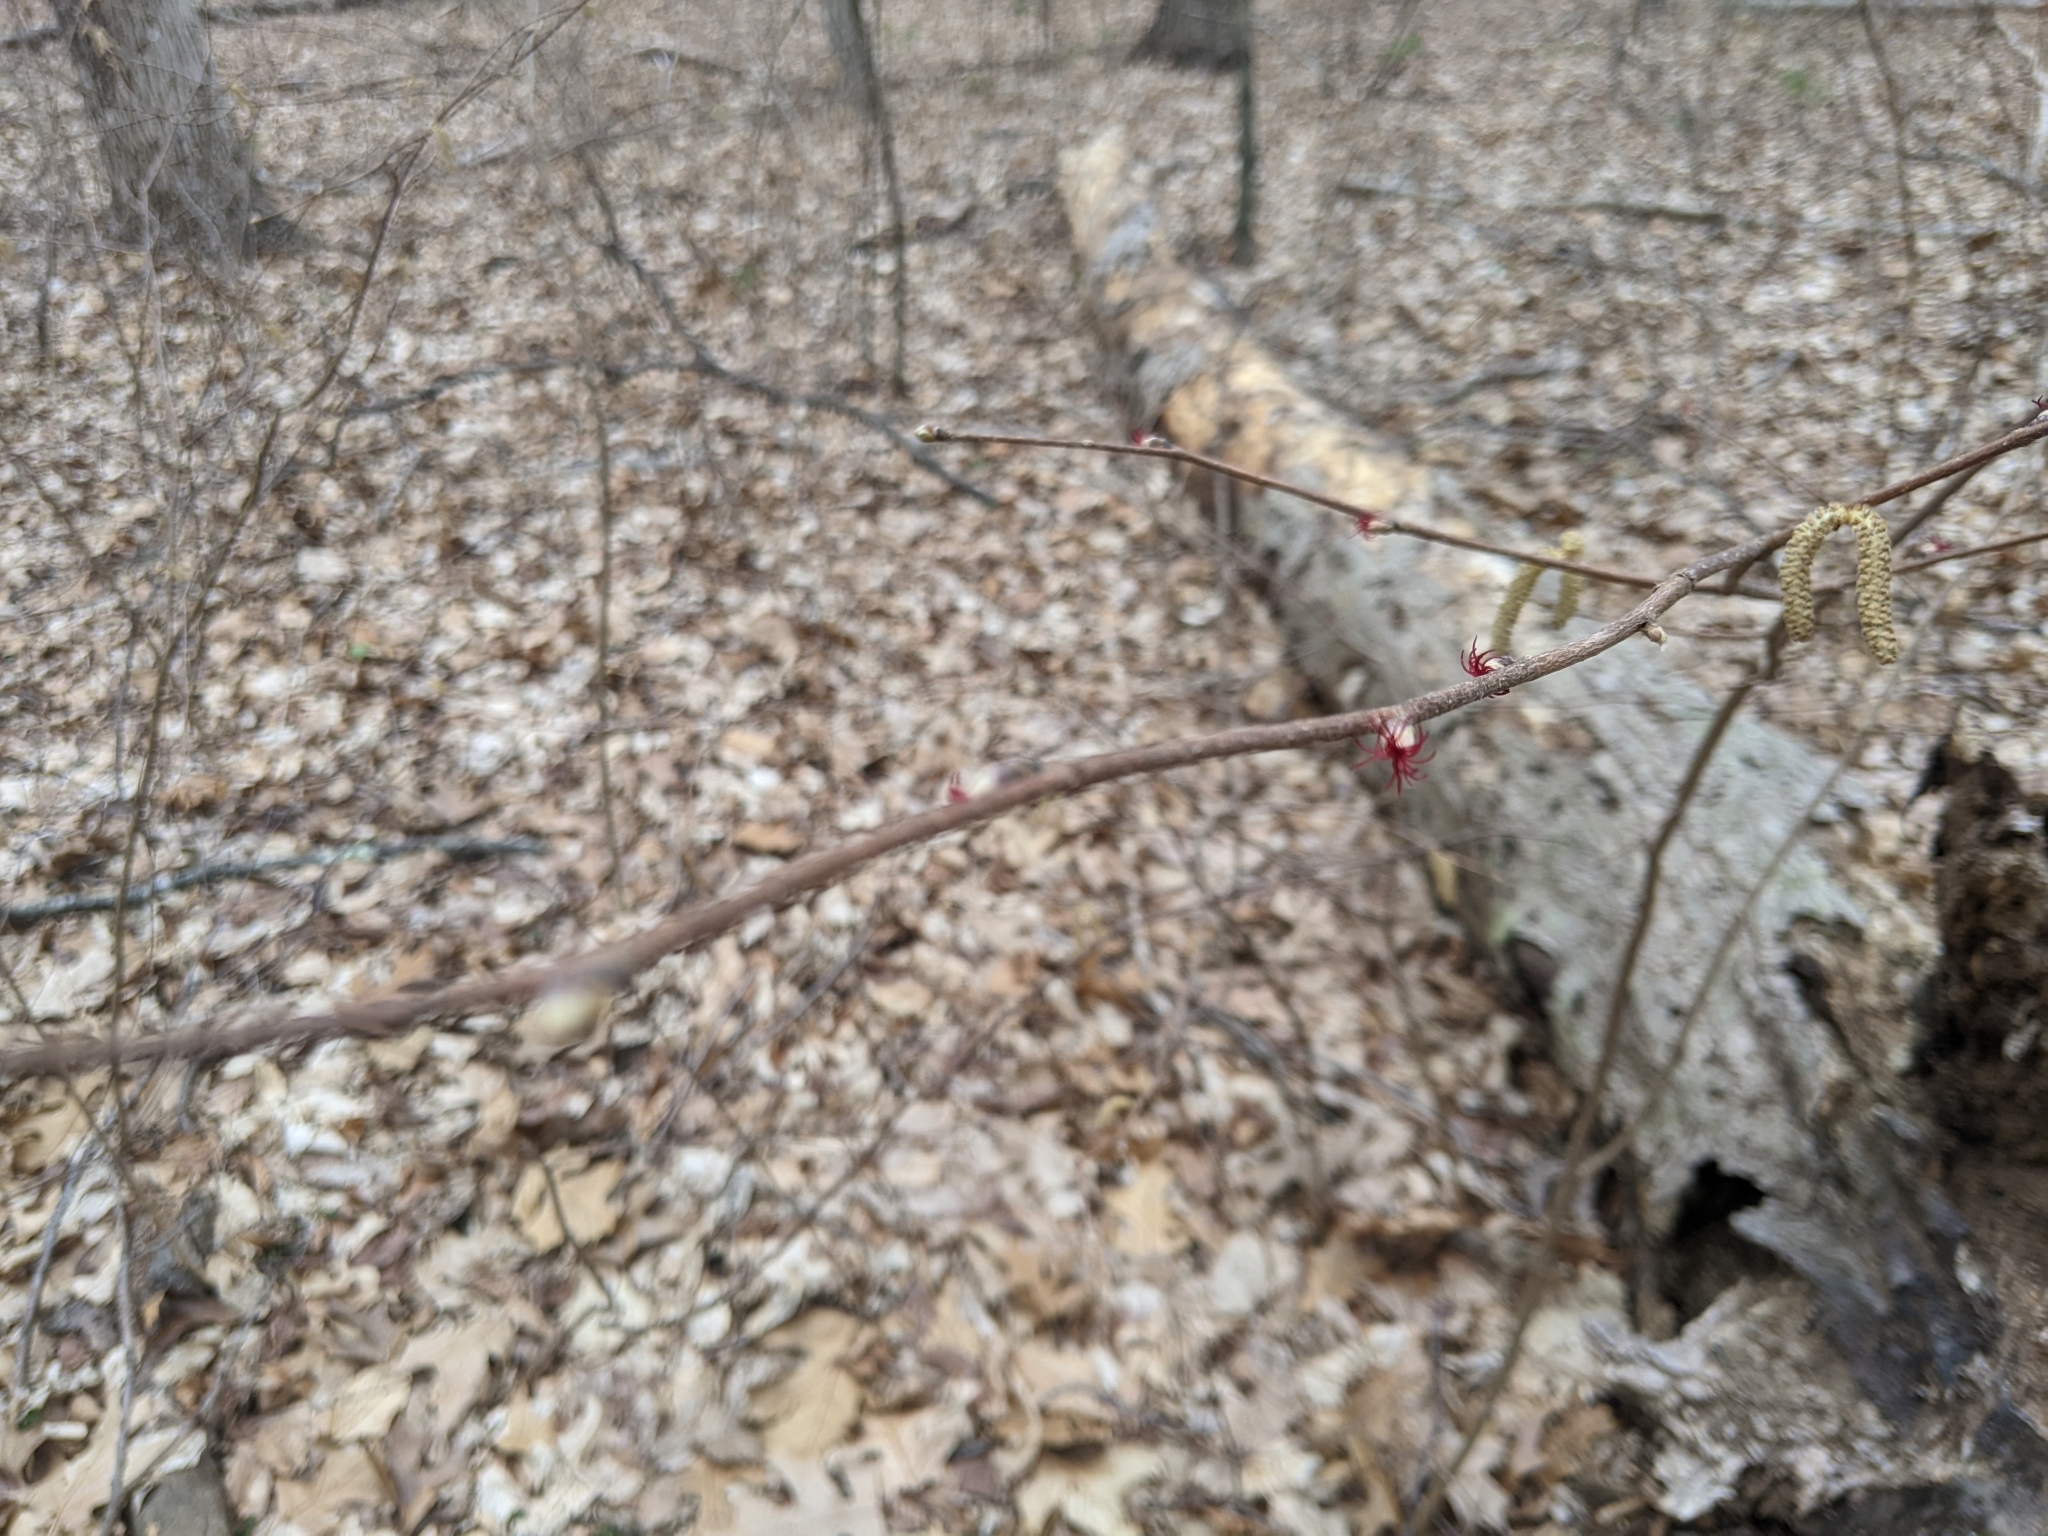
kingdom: Plantae
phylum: Tracheophyta
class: Magnoliopsida
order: Fagales
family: Betulaceae
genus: Corylus
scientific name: Corylus cornuta
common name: Beaked hazel
